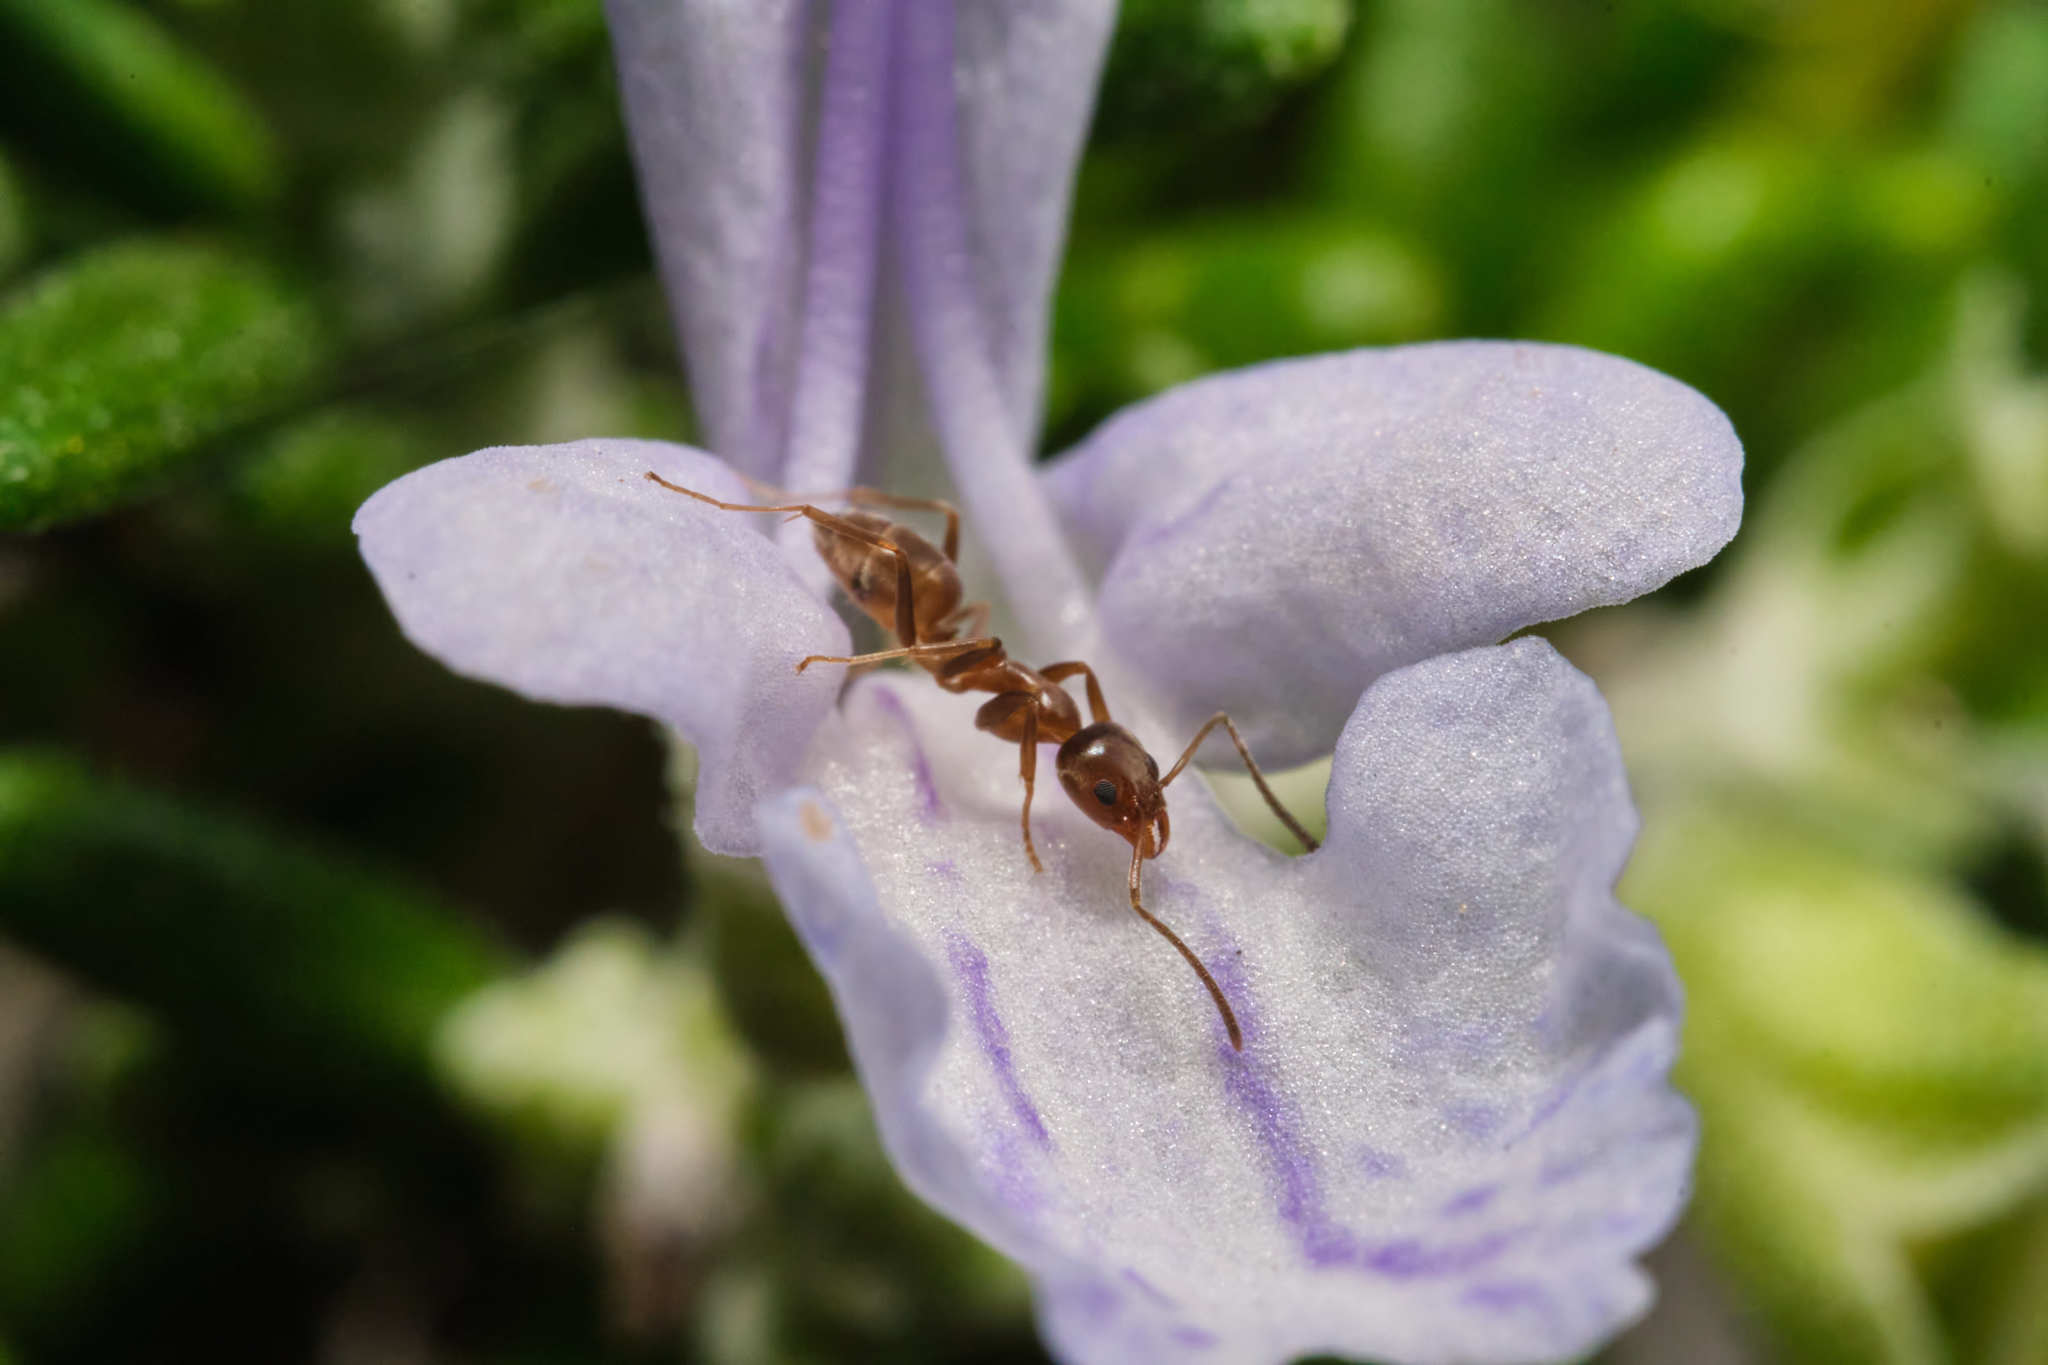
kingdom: Animalia
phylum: Arthropoda
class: Insecta
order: Hymenoptera
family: Formicidae
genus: Linepithema
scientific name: Linepithema humile
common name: Argentine ant
